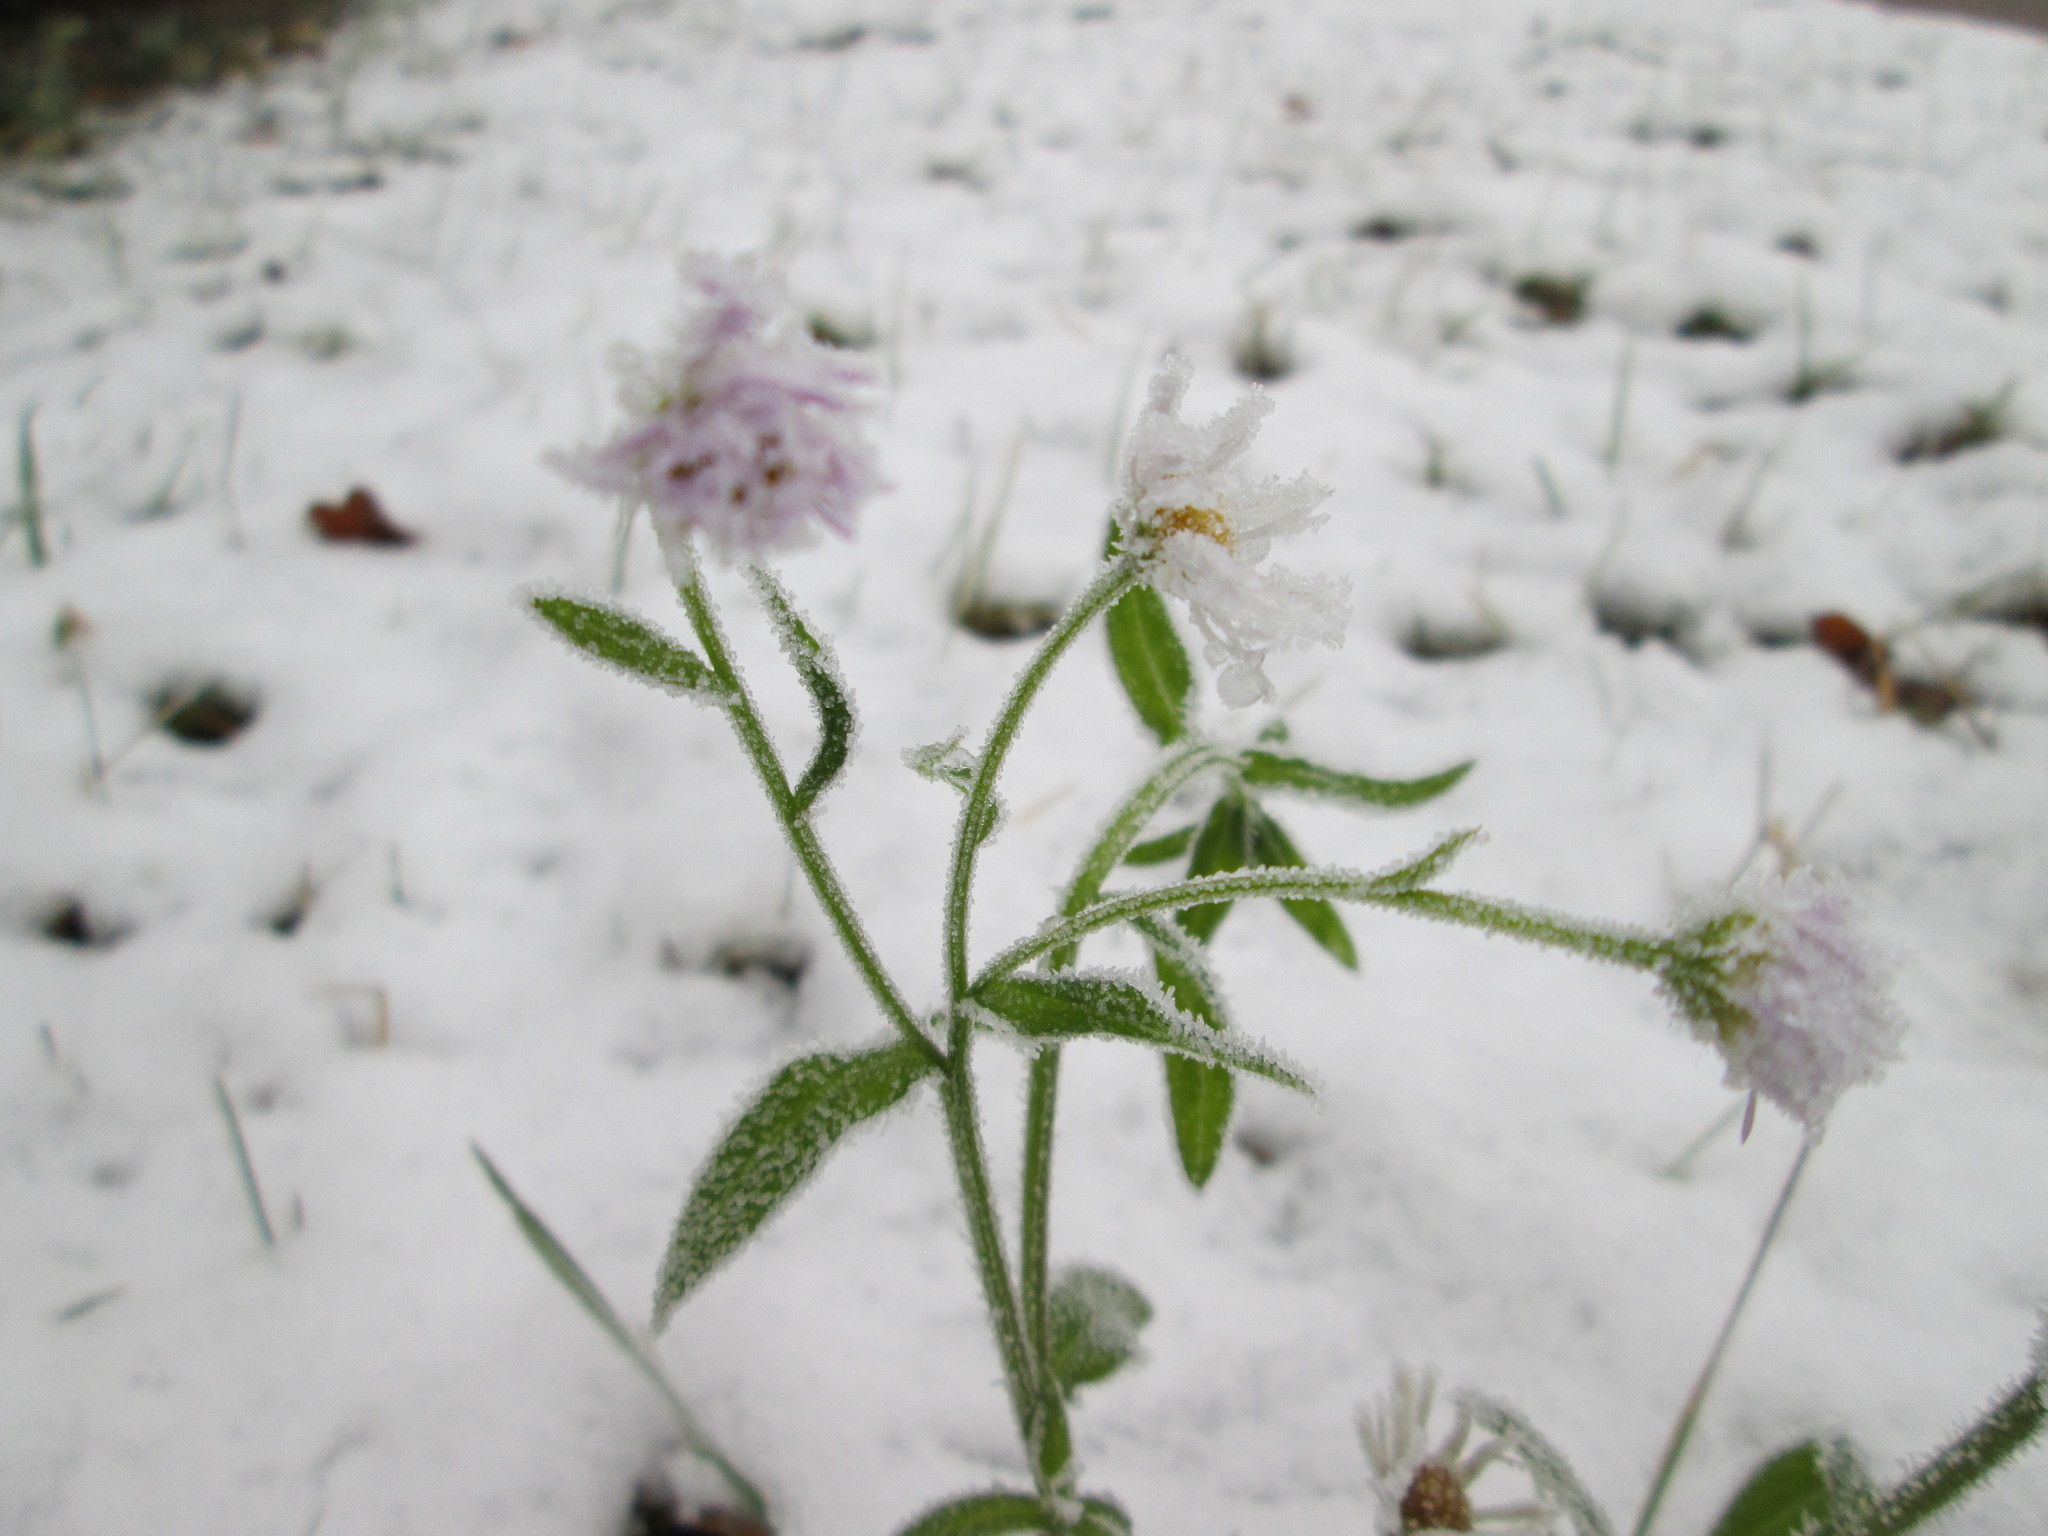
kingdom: Plantae
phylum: Tracheophyta
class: Magnoliopsida
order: Asterales
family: Asteraceae
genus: Erigeron
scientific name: Erigeron annuus
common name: Tall fleabane
